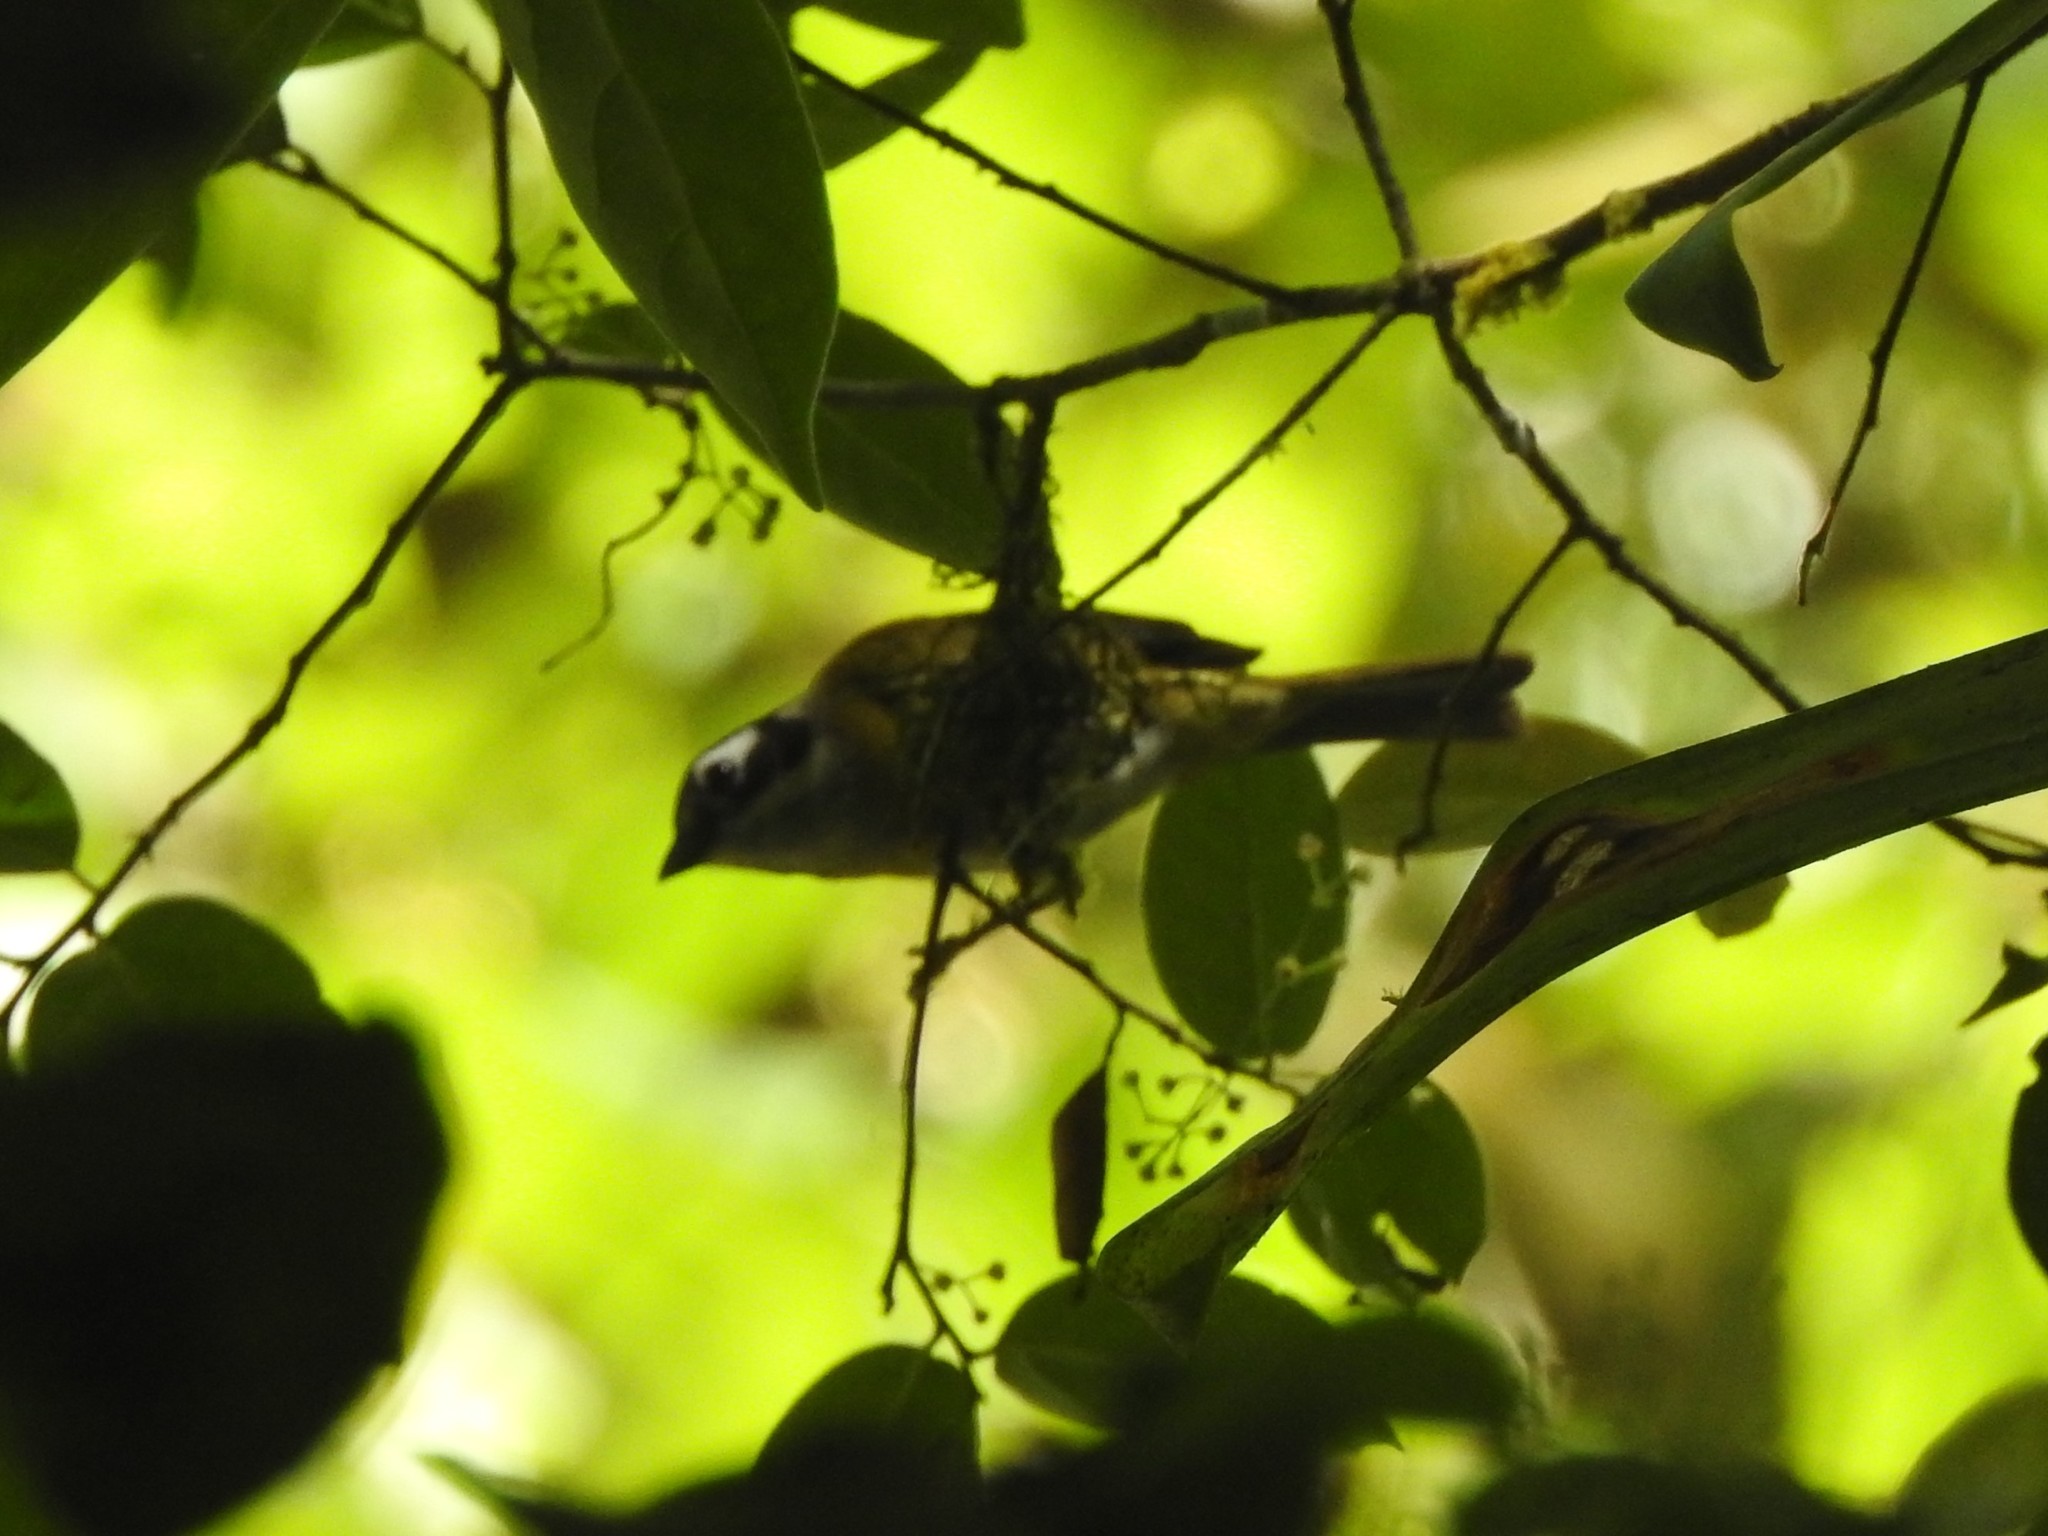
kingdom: Animalia
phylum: Chordata
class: Aves
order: Passeriformes
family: Passerellidae
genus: Chlorospingus
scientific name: Chlorospingus flavopectus
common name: Common chlorospingus
